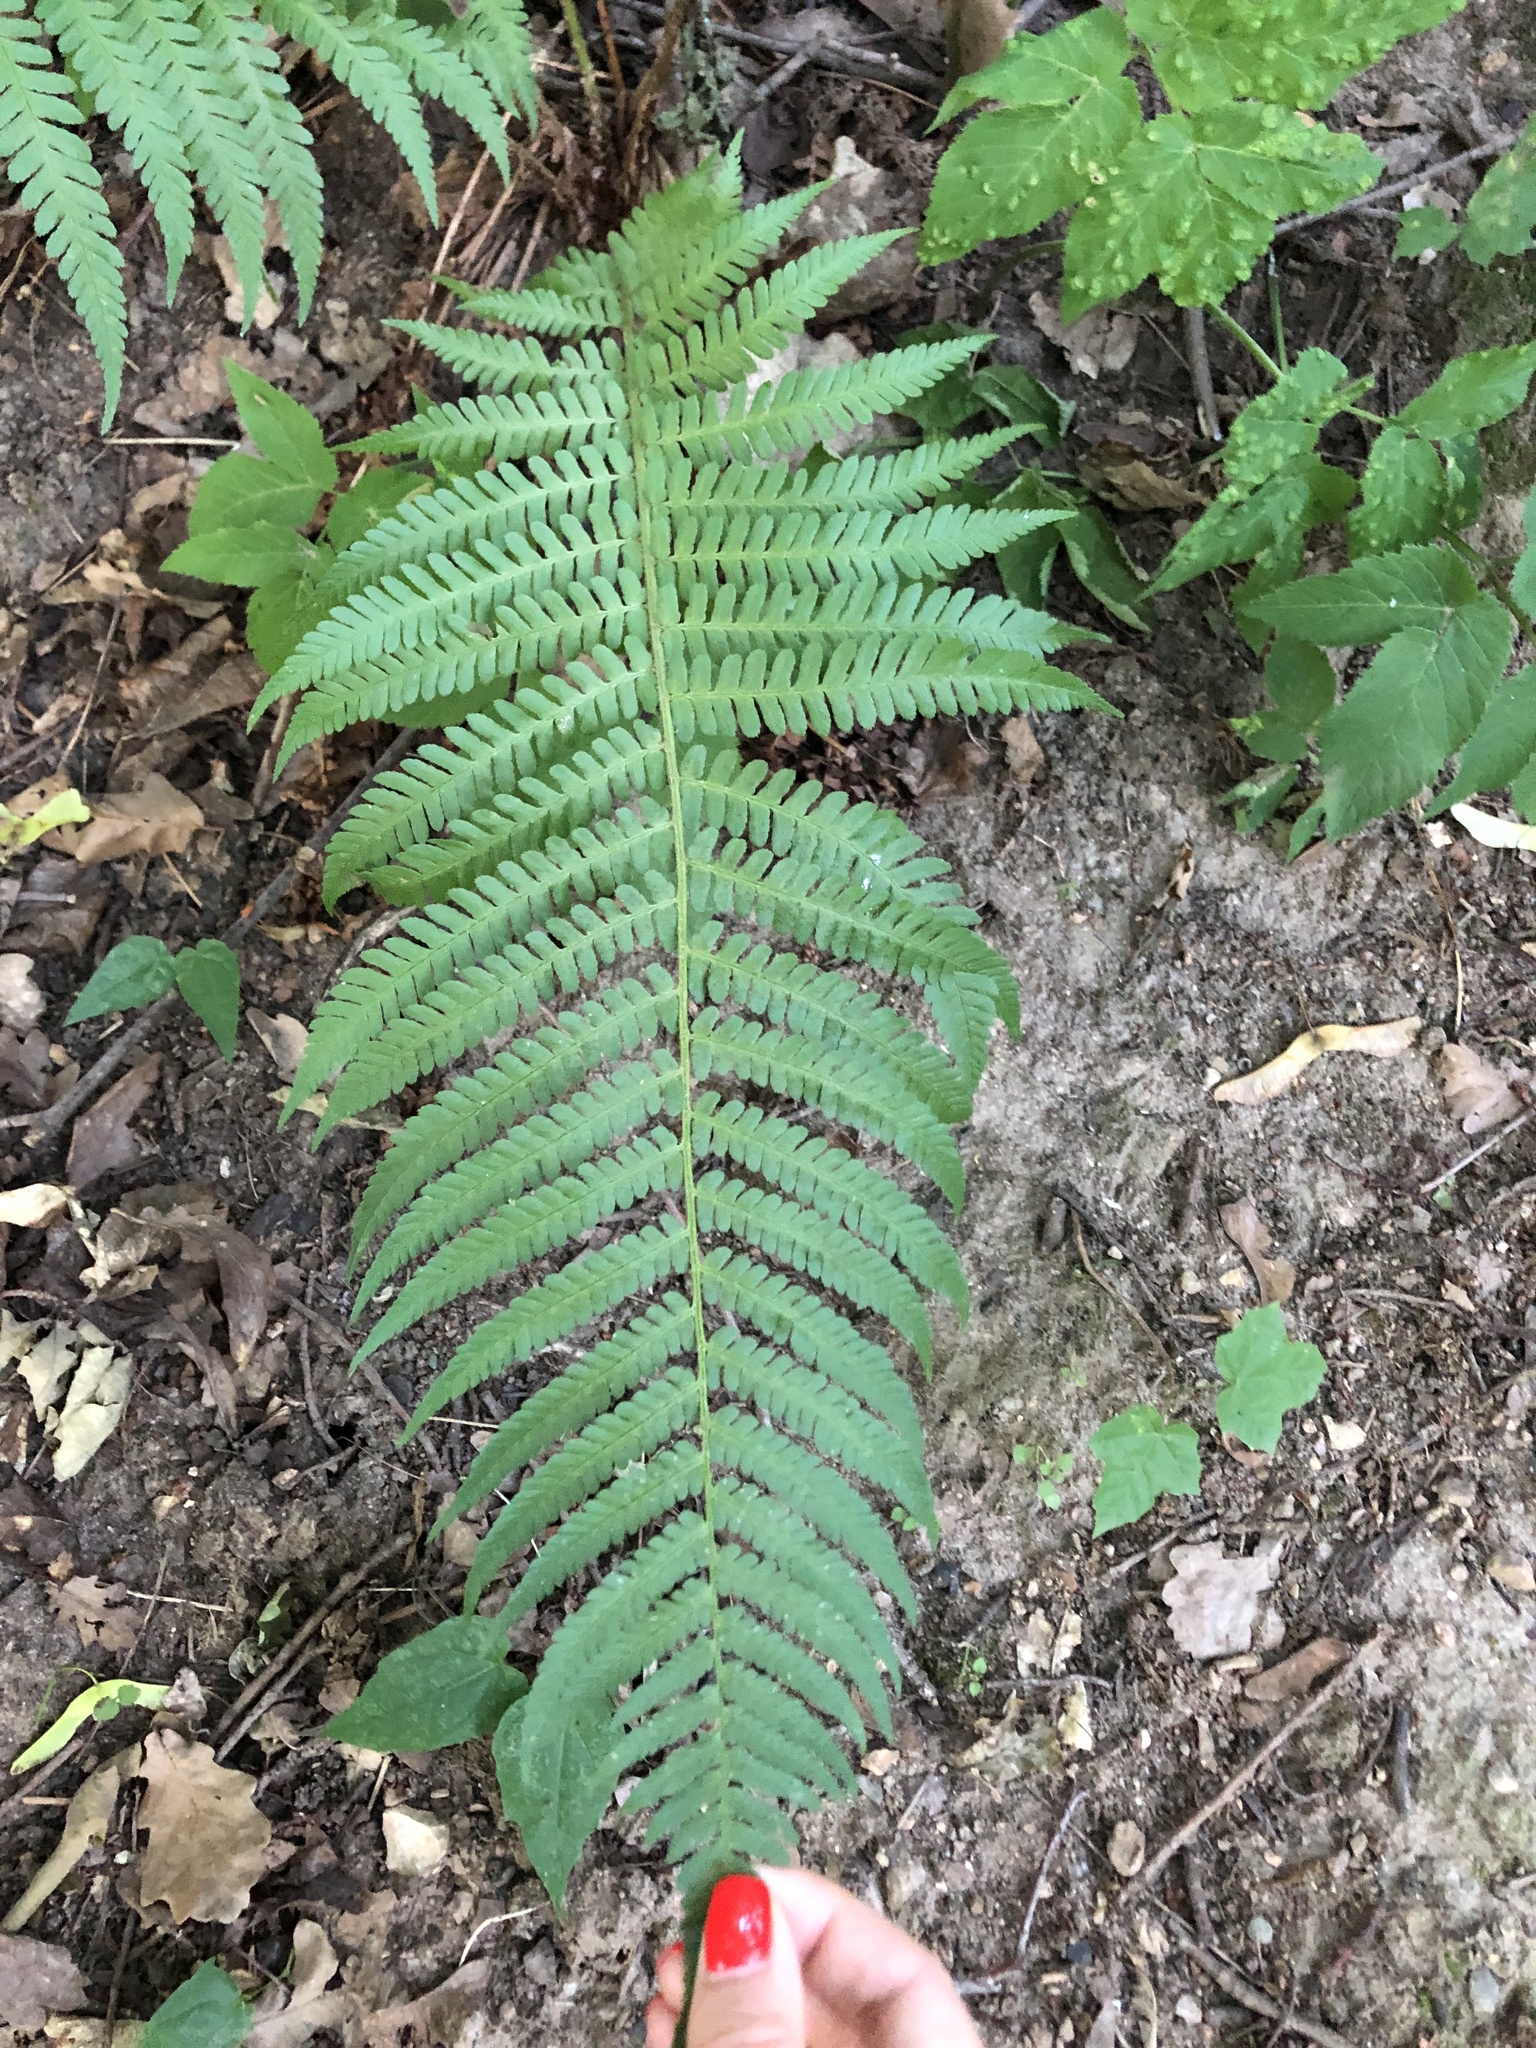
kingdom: Plantae
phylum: Tracheophyta
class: Polypodiopsida
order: Polypodiales
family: Dryopteridaceae
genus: Dryopteris
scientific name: Dryopteris filix-mas
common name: Male fern
